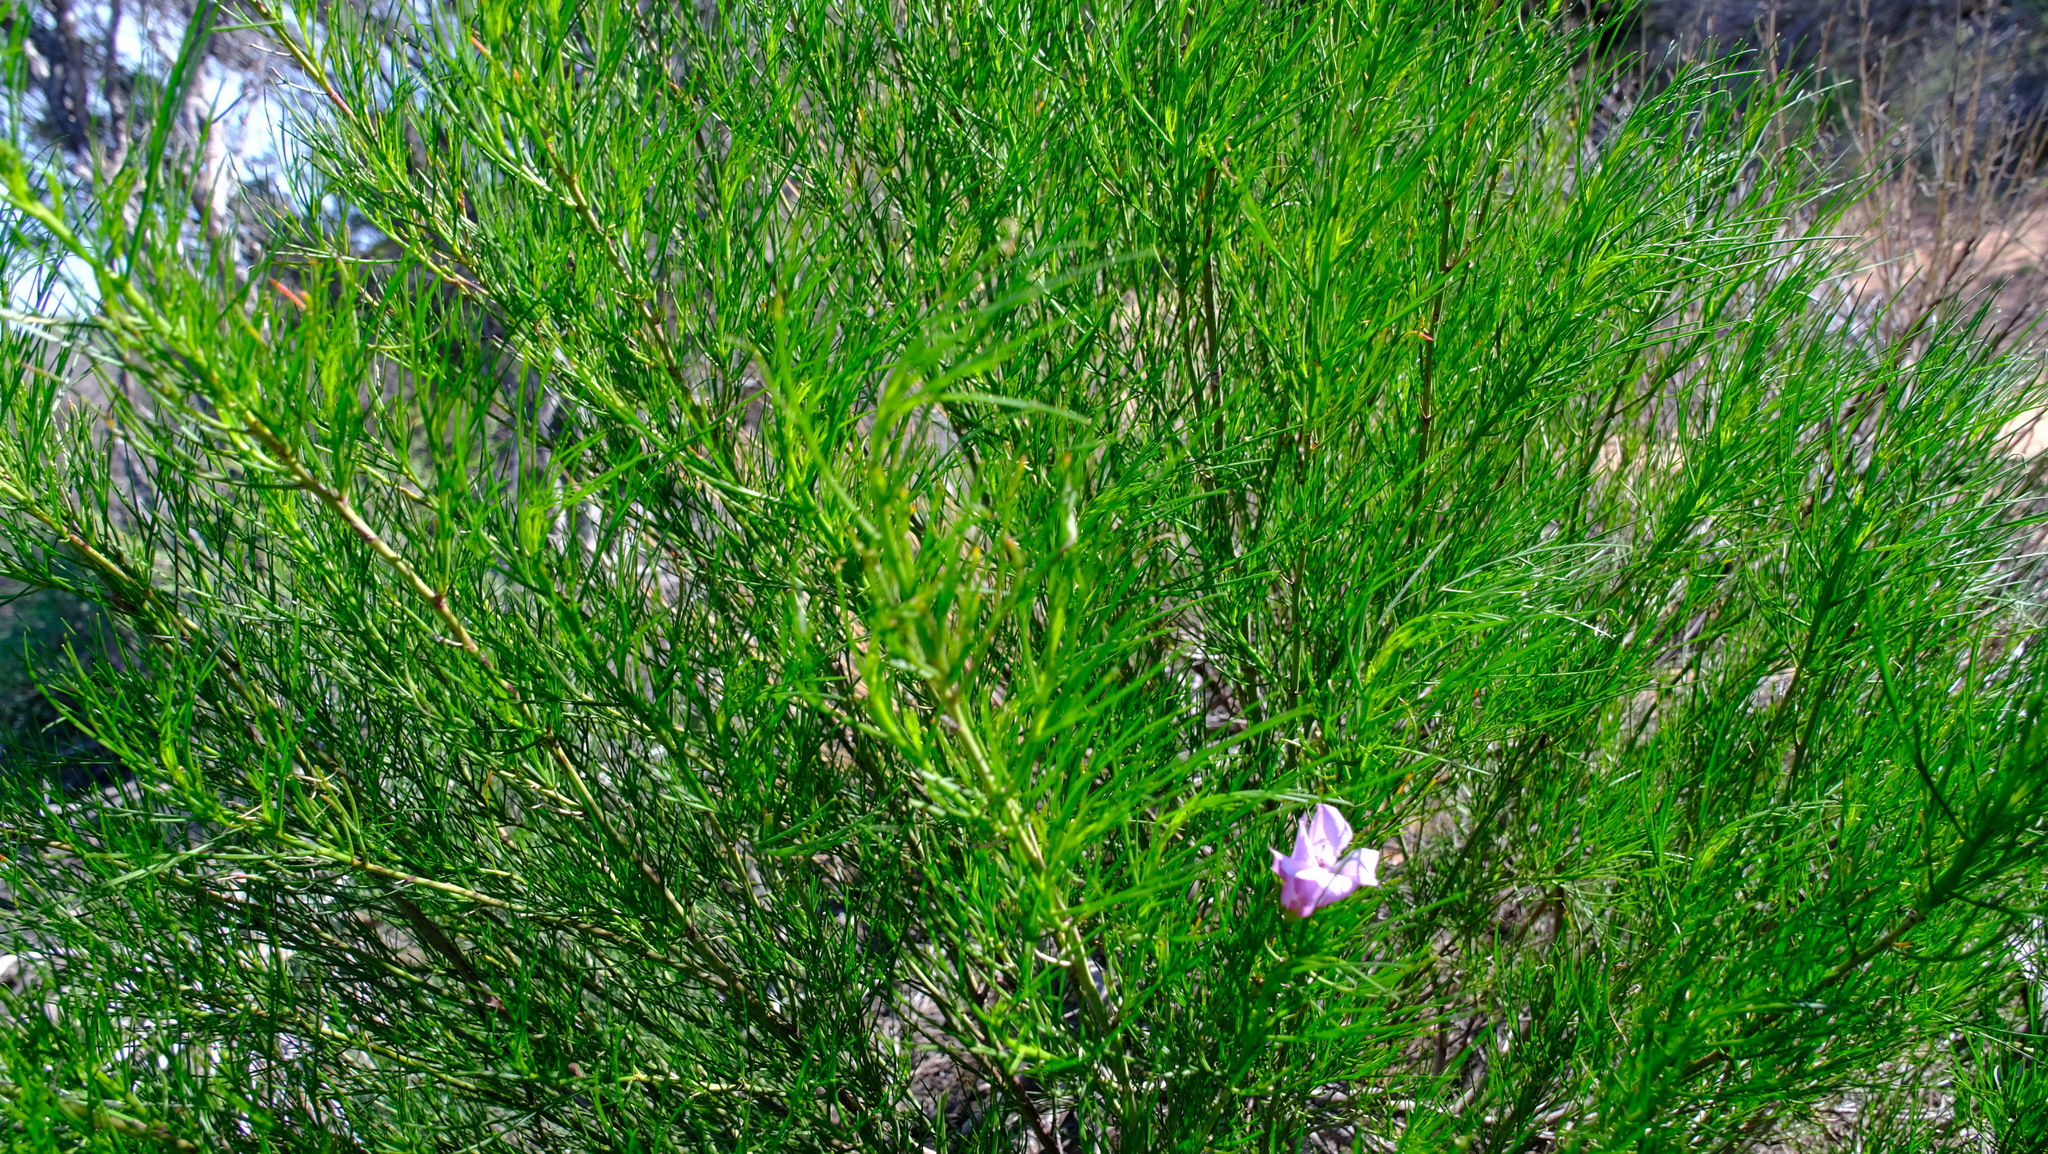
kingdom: Plantae
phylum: Tracheophyta
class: Magnoliopsida
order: Malvales
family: Malvaceae
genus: Hibiscus
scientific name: Hibiscus hakeifolius
